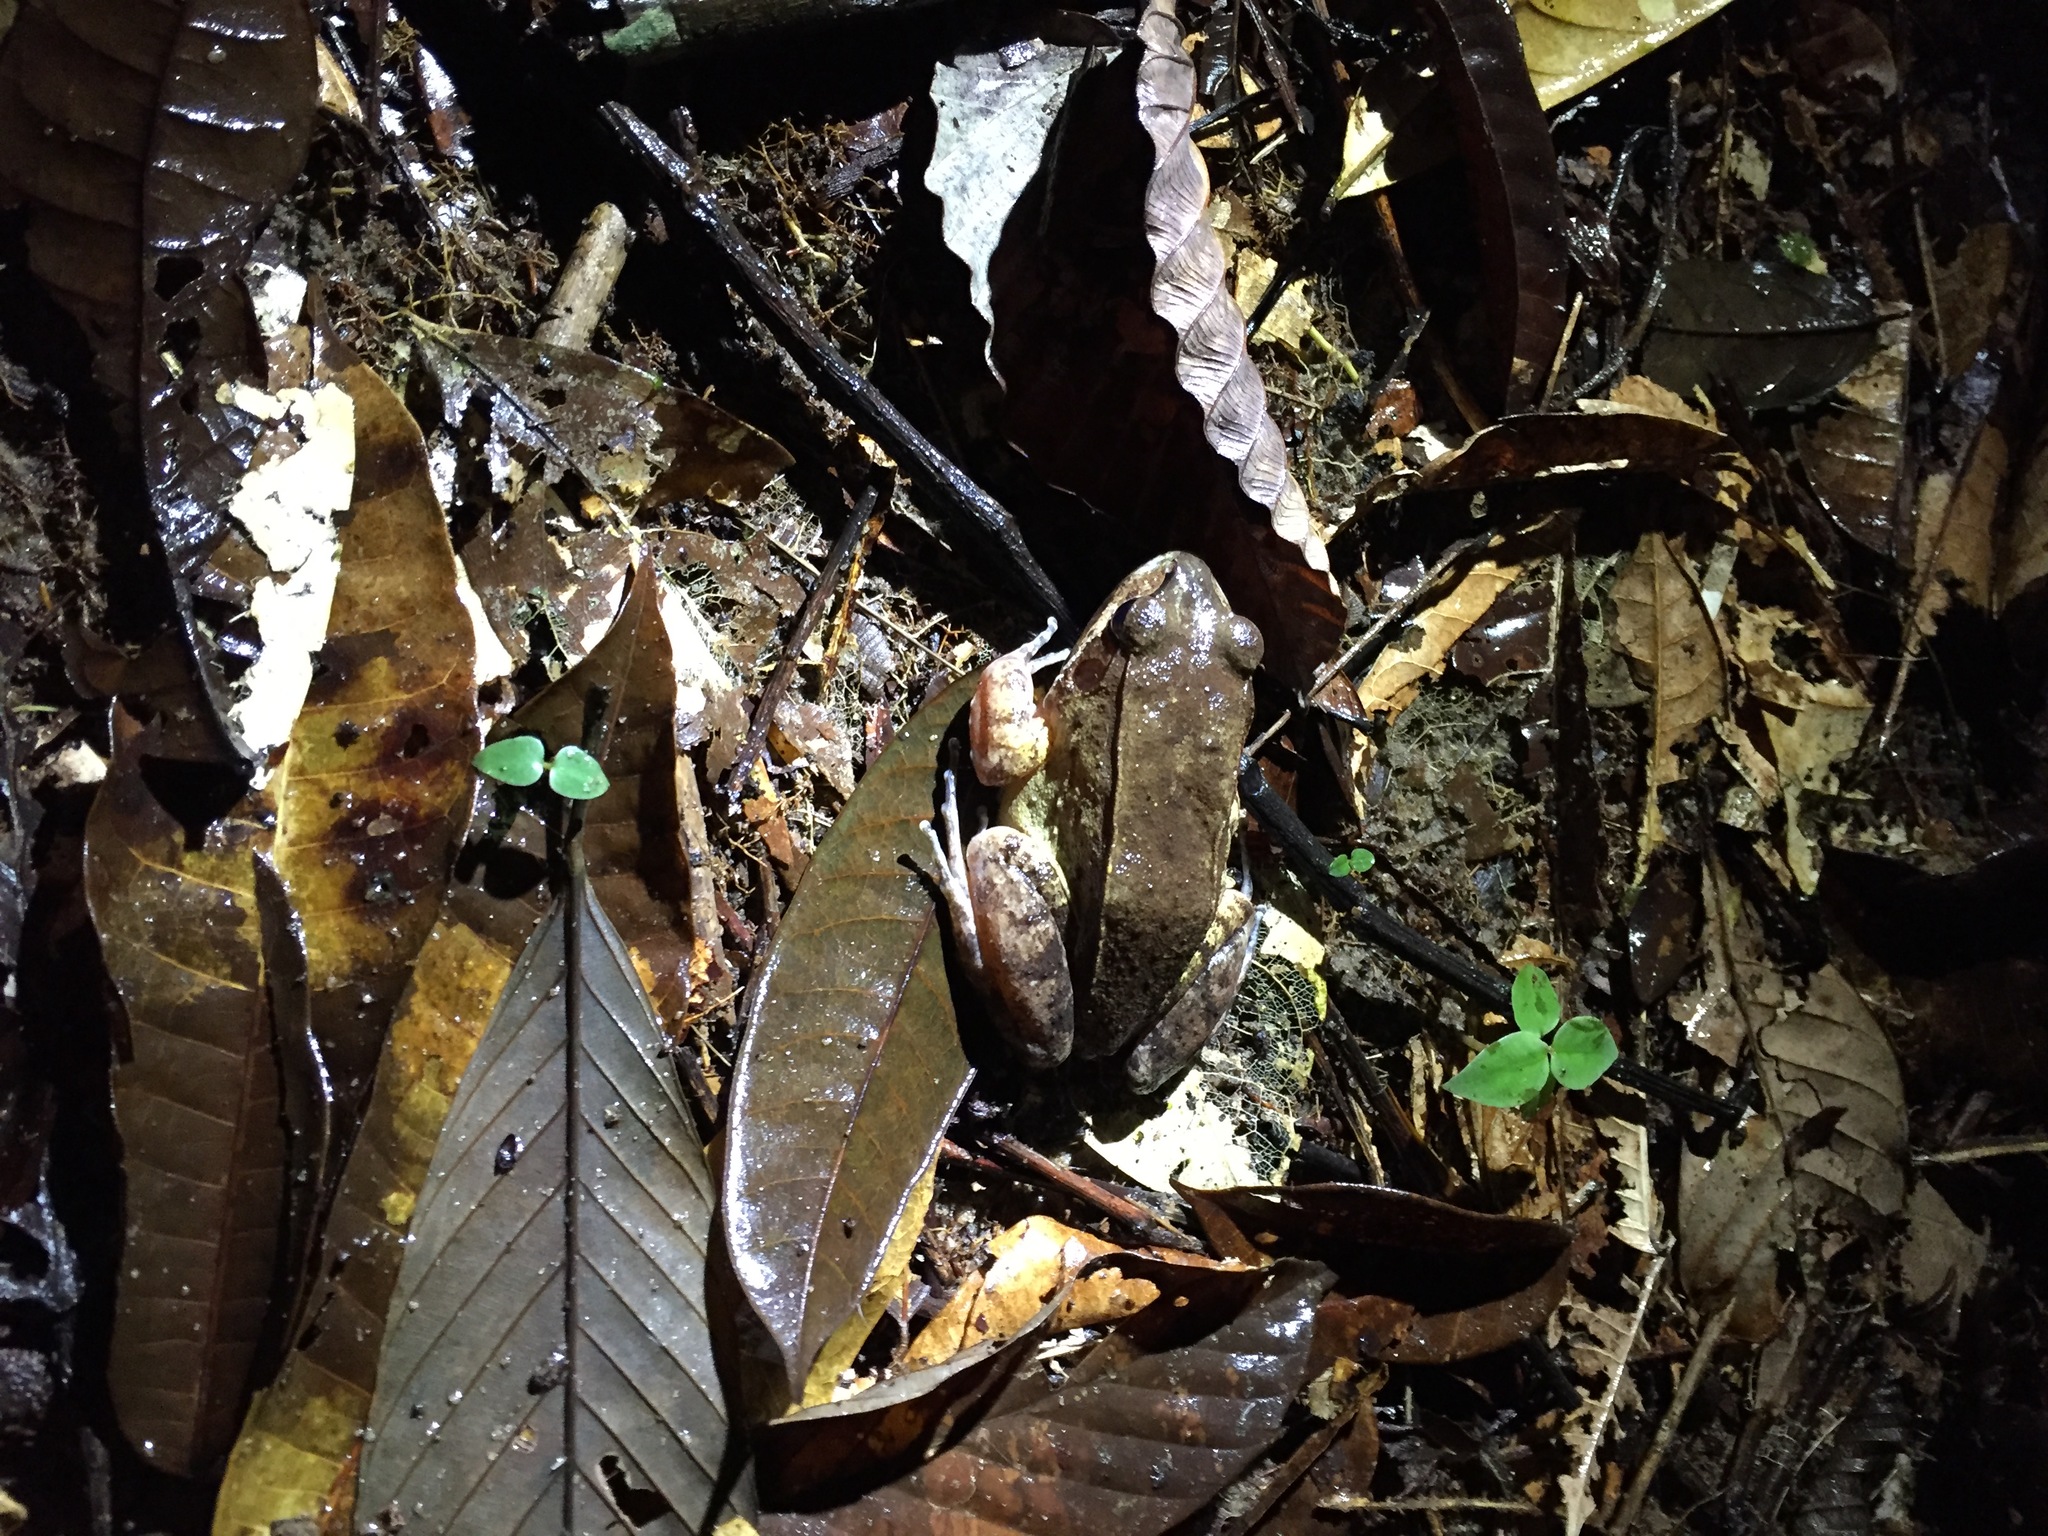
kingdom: Animalia
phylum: Chordata
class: Amphibia
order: Anura
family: Leptodactylidae
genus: Leptodactylus
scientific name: Leptodactylus rhodomystax
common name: Loreto white-lipped frog
